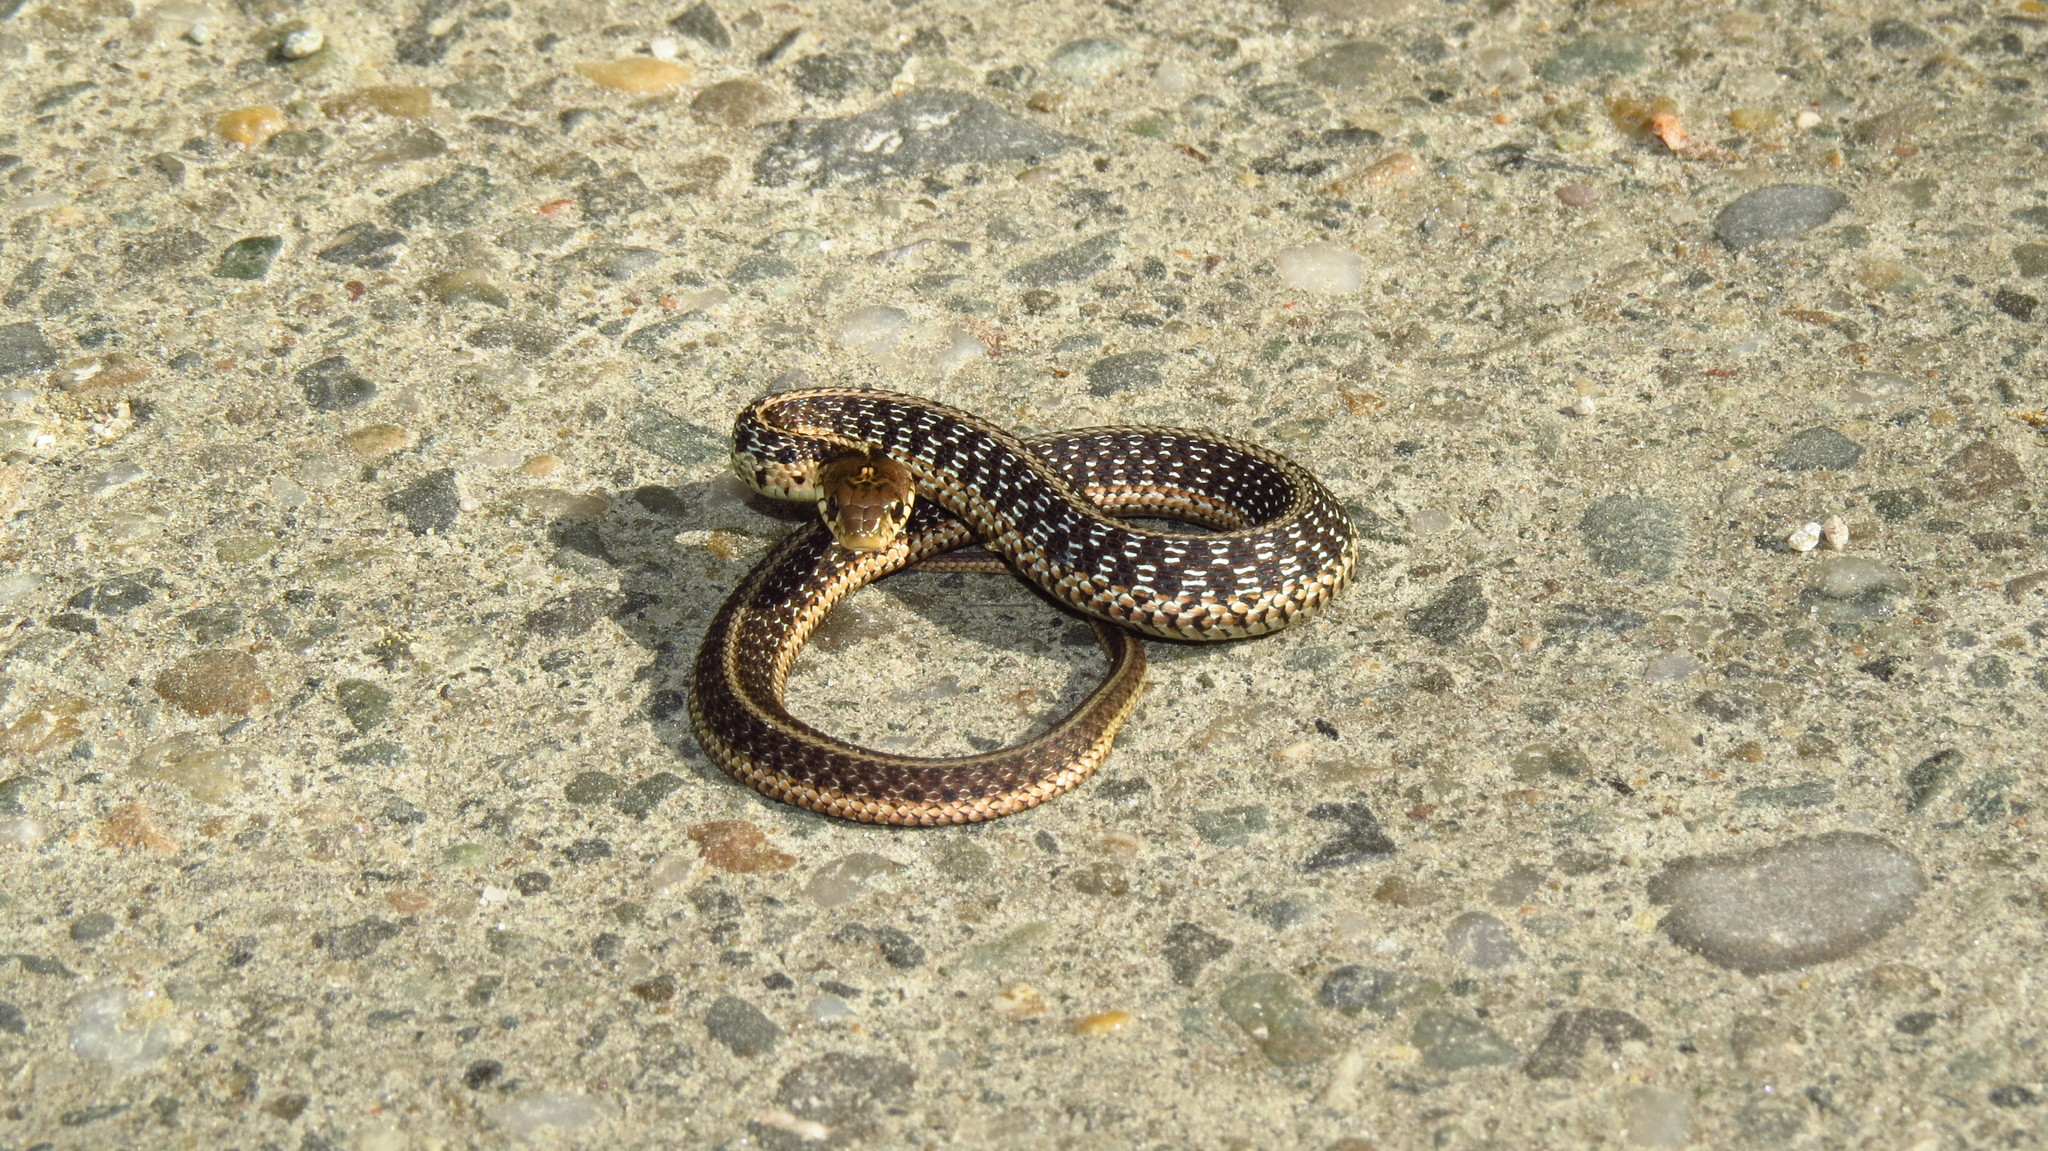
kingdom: Animalia
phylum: Chordata
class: Squamata
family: Colubridae
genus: Thamnophis
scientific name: Thamnophis sirtalis
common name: Common garter snake
